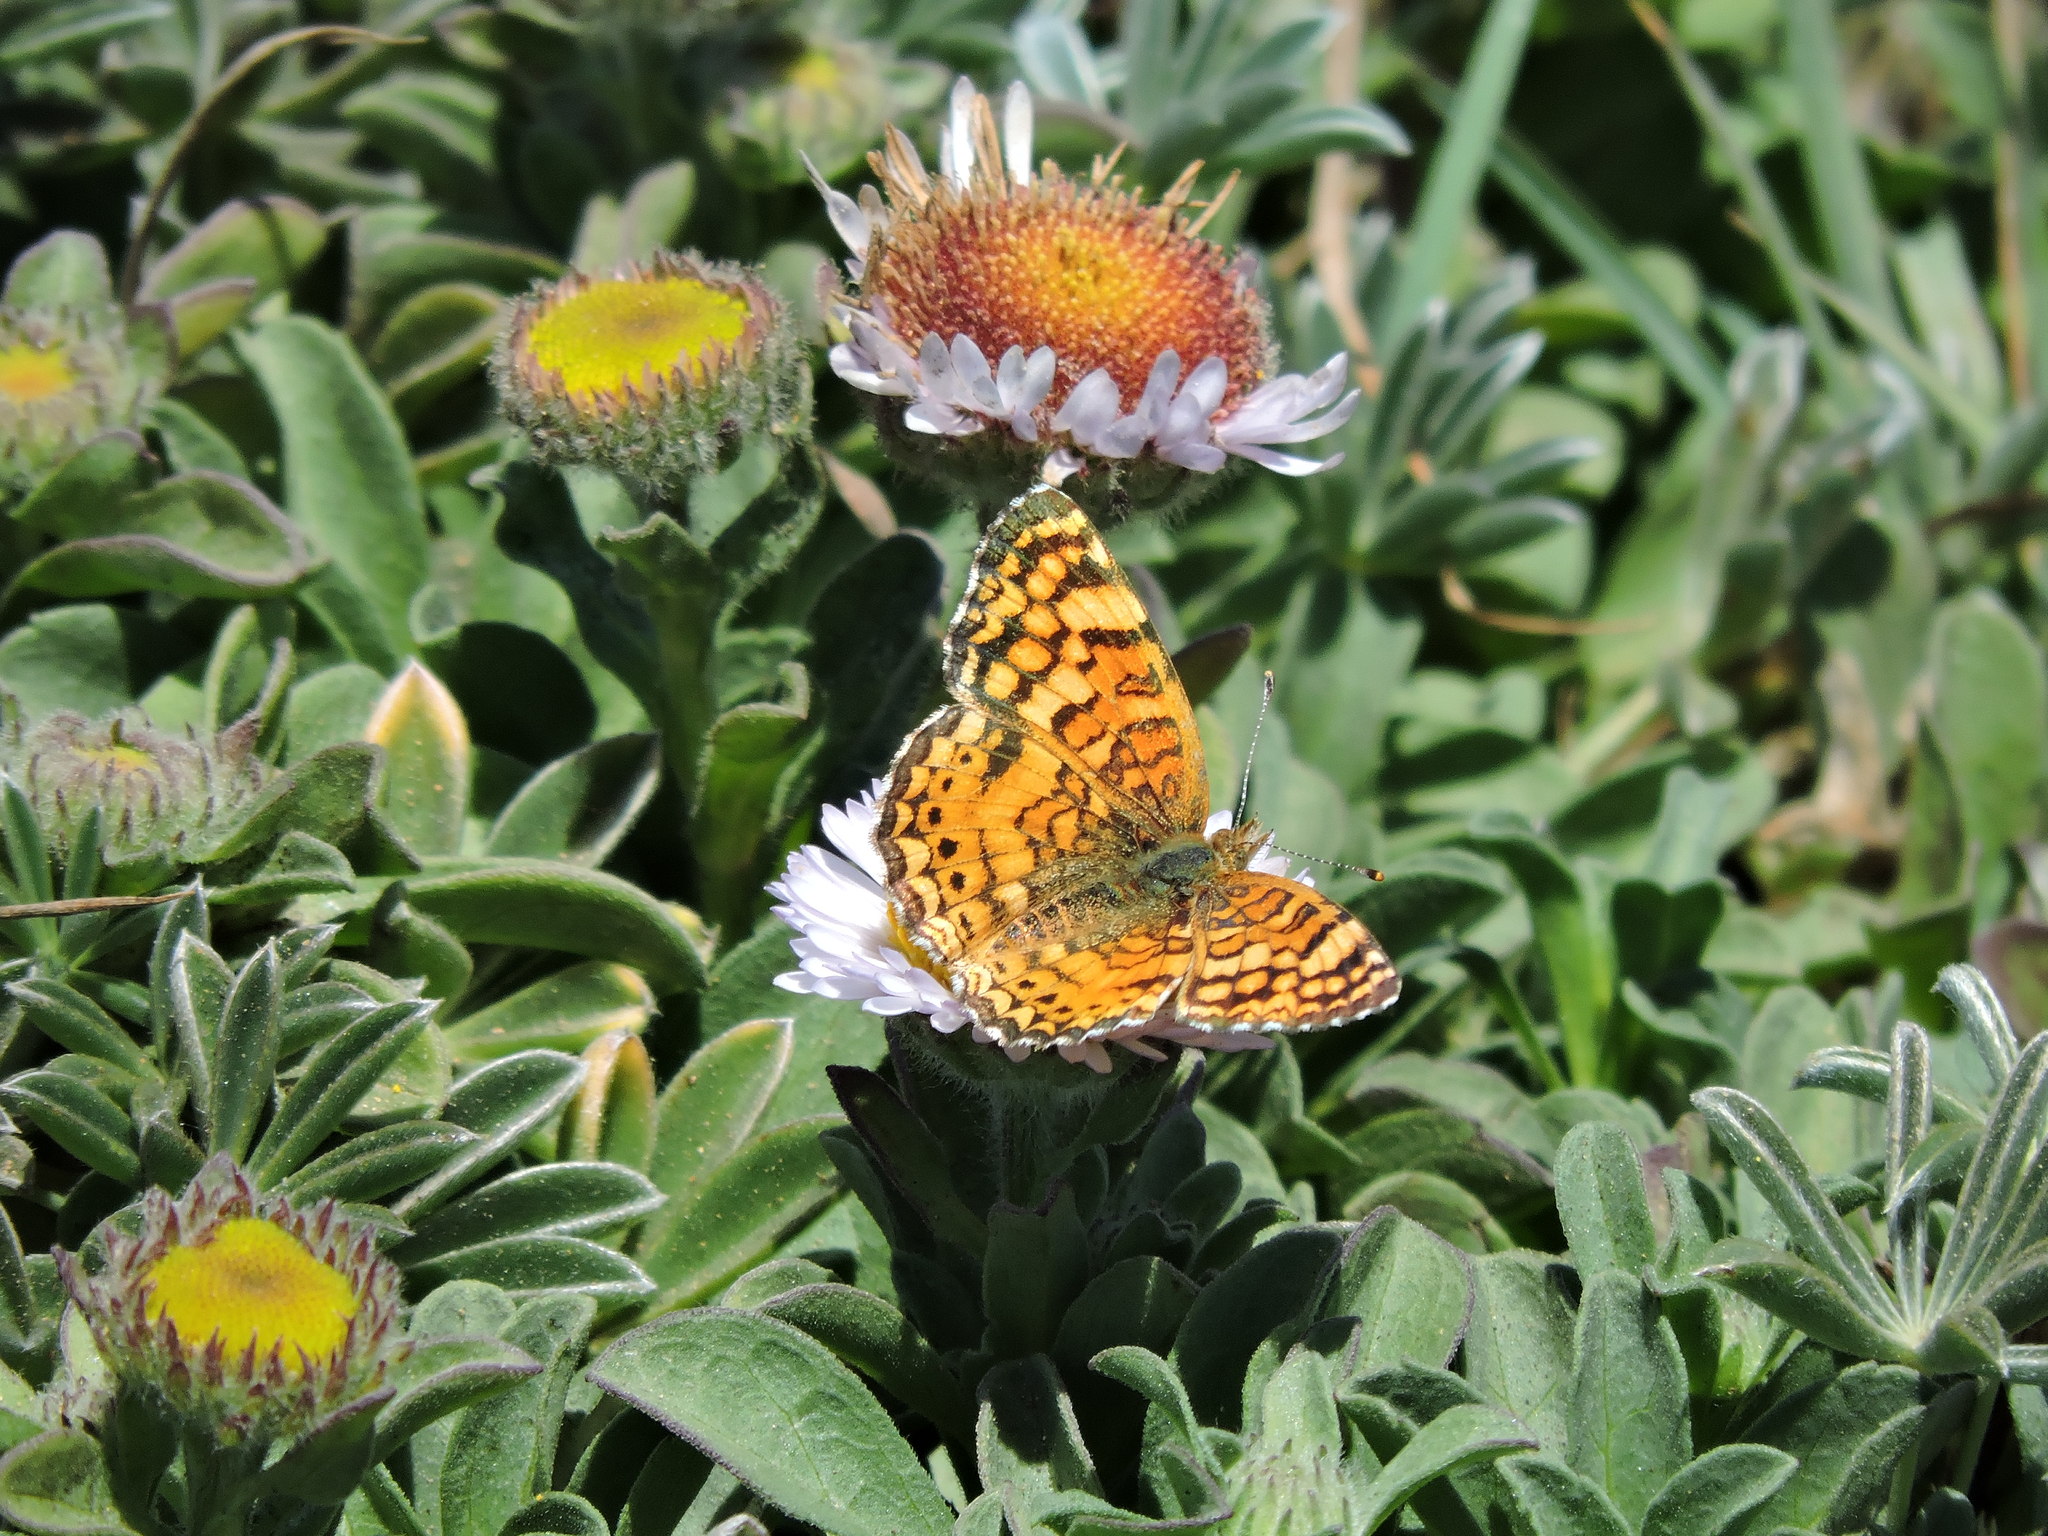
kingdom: Animalia
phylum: Arthropoda
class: Insecta
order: Lepidoptera
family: Nymphalidae
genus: Eresia
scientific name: Eresia aveyrona
